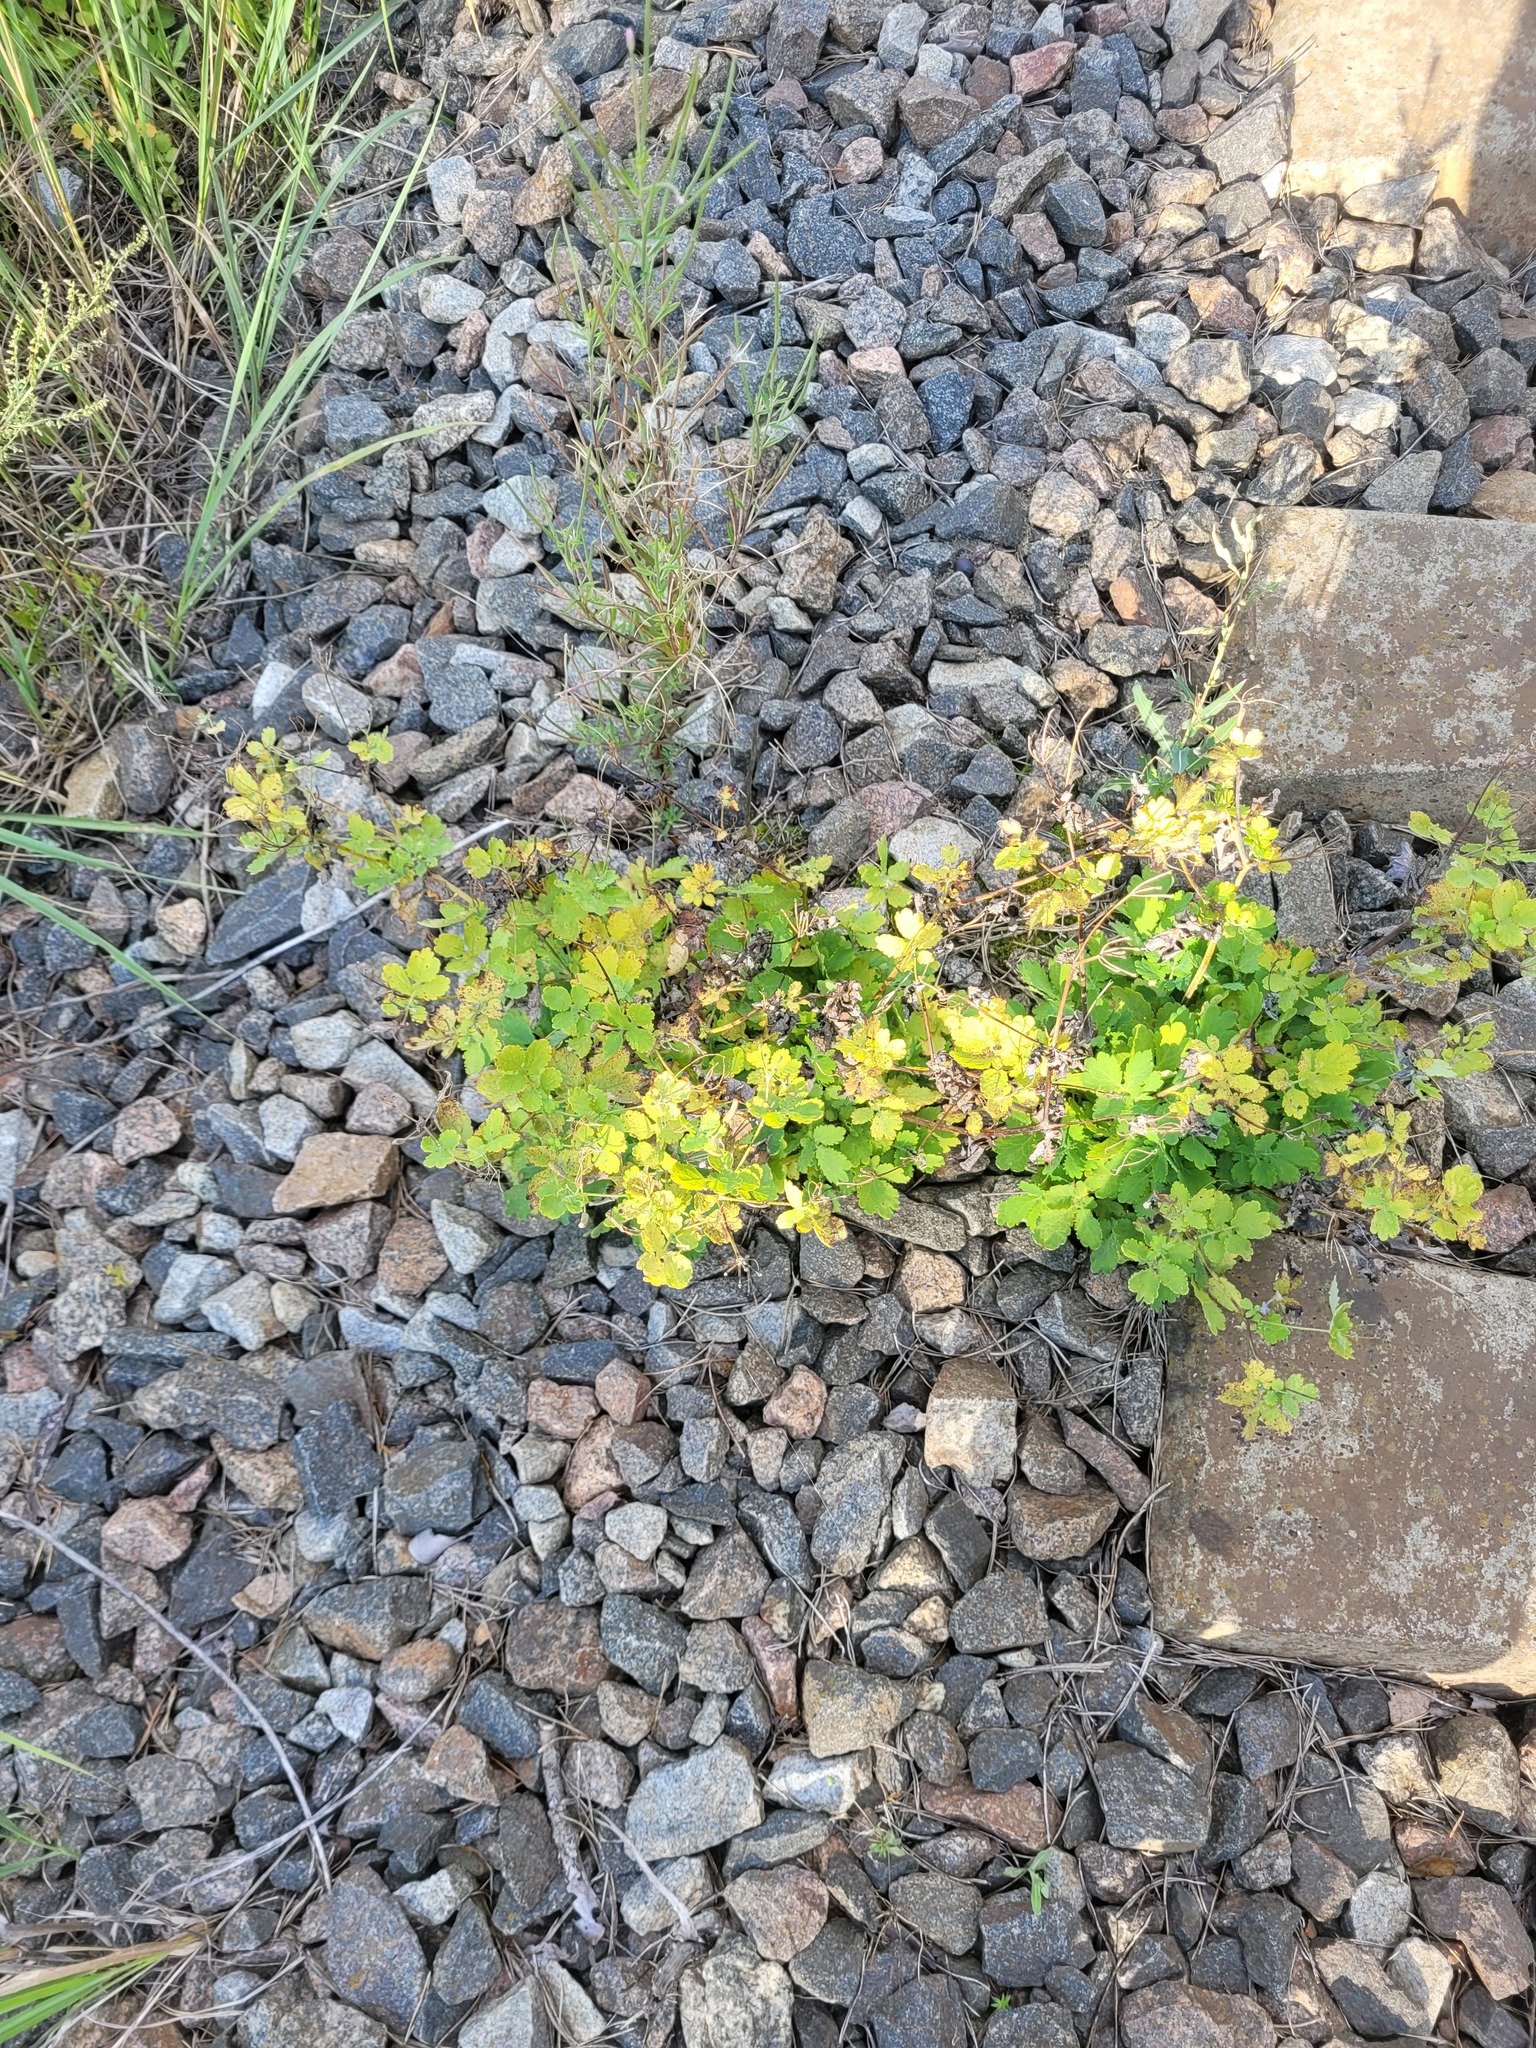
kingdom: Plantae
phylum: Tracheophyta
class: Magnoliopsida
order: Ranunculales
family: Papaveraceae
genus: Chelidonium
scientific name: Chelidonium majus
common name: Greater celandine
